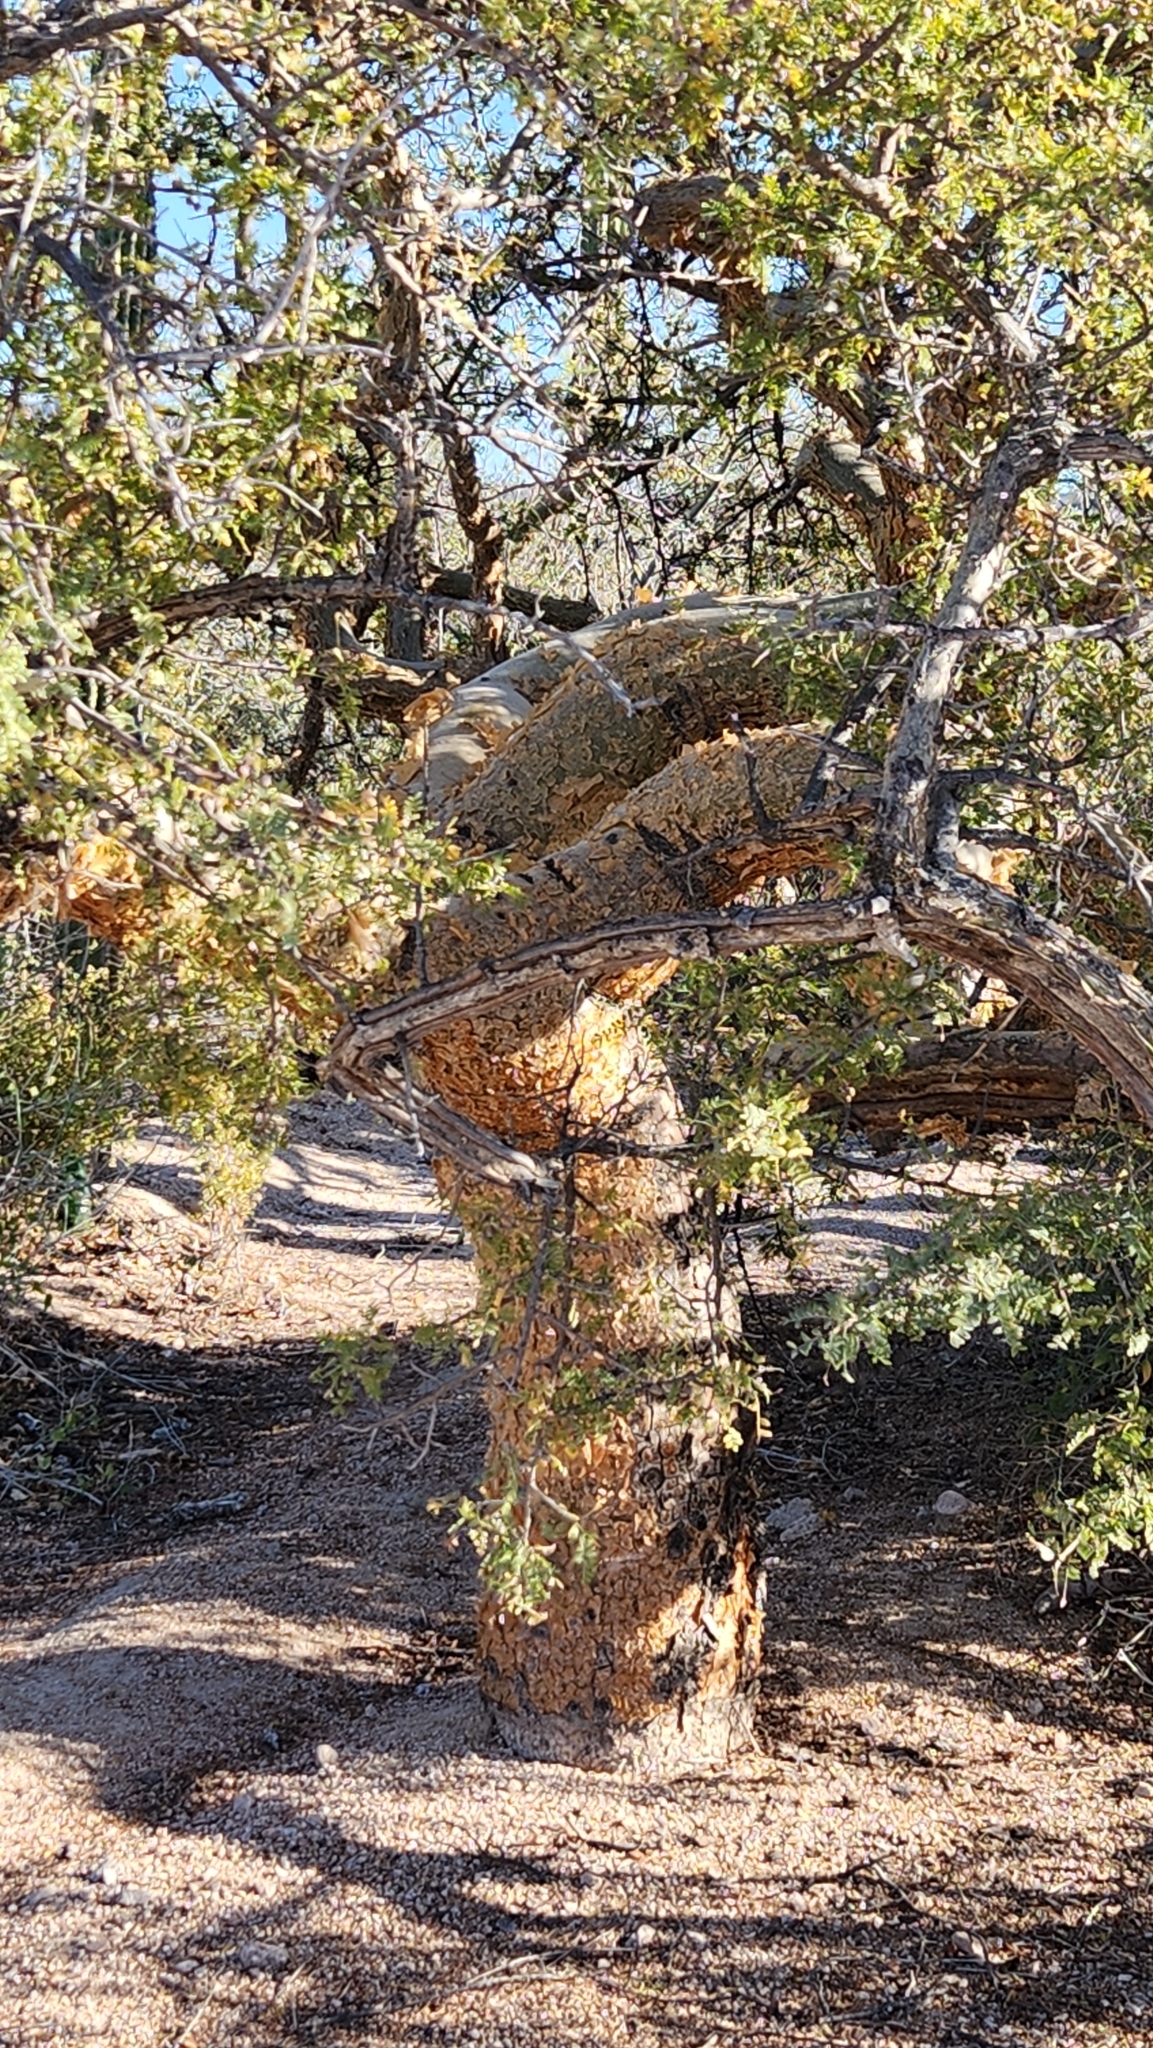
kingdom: Plantae
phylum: Tracheophyta
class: Magnoliopsida
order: Sapindales
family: Burseraceae
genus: Bursera
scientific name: Bursera microphylla
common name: Elephant tree
